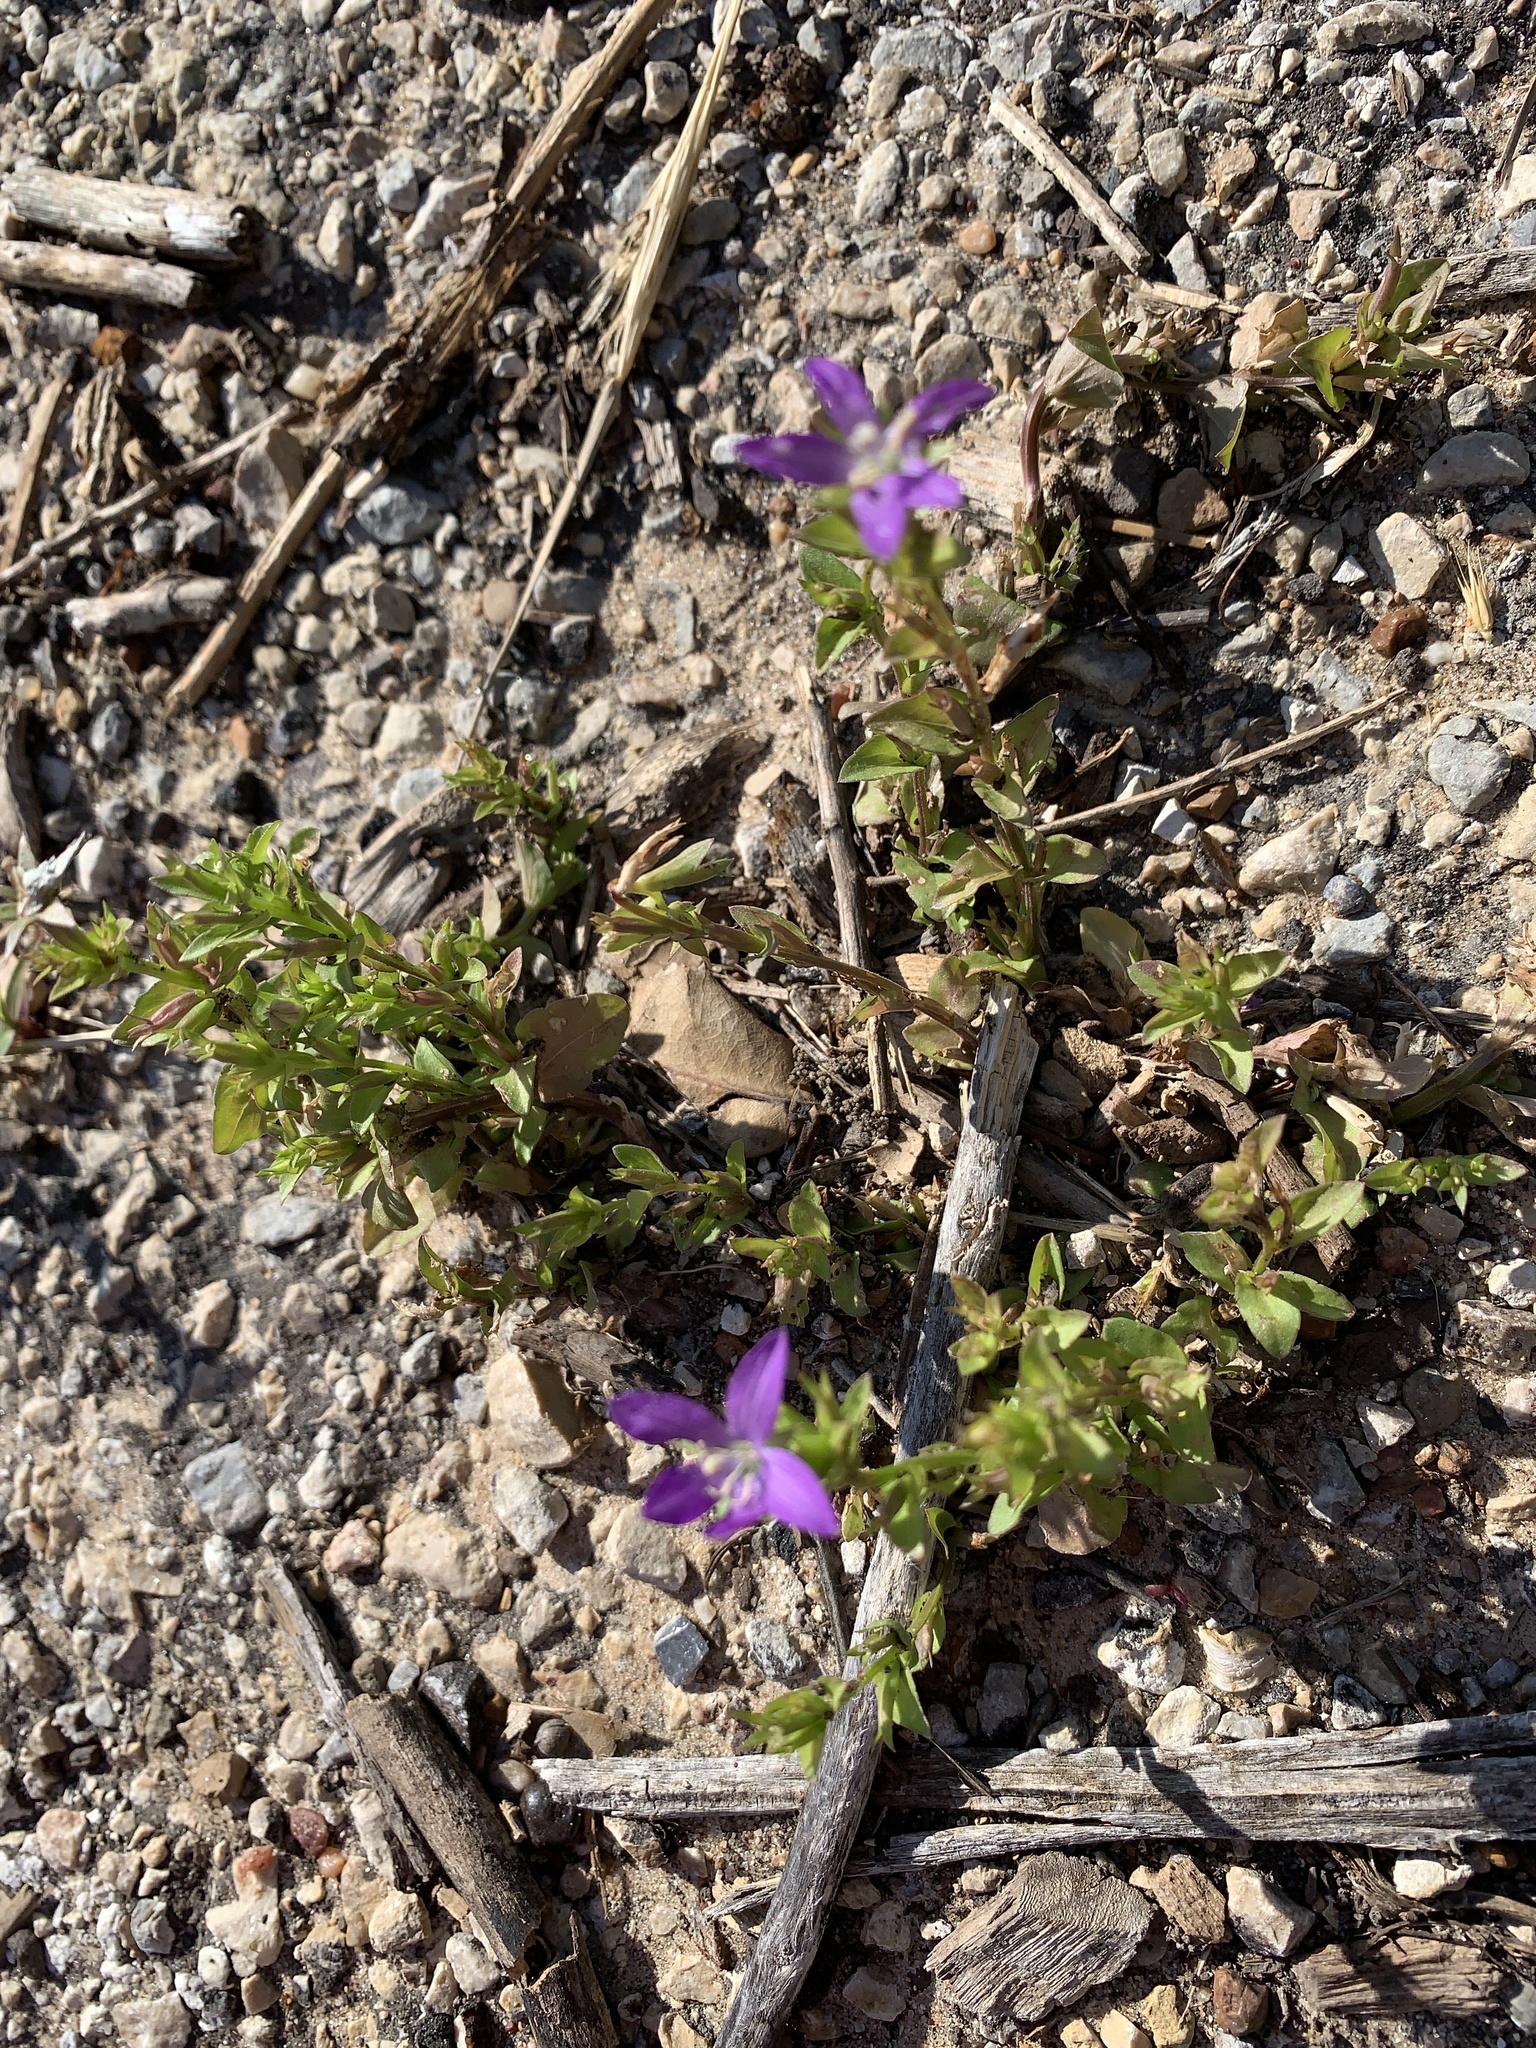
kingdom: Plantae
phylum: Tracheophyta
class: Magnoliopsida
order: Asterales
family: Campanulaceae
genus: Triodanis
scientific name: Triodanis biflora
